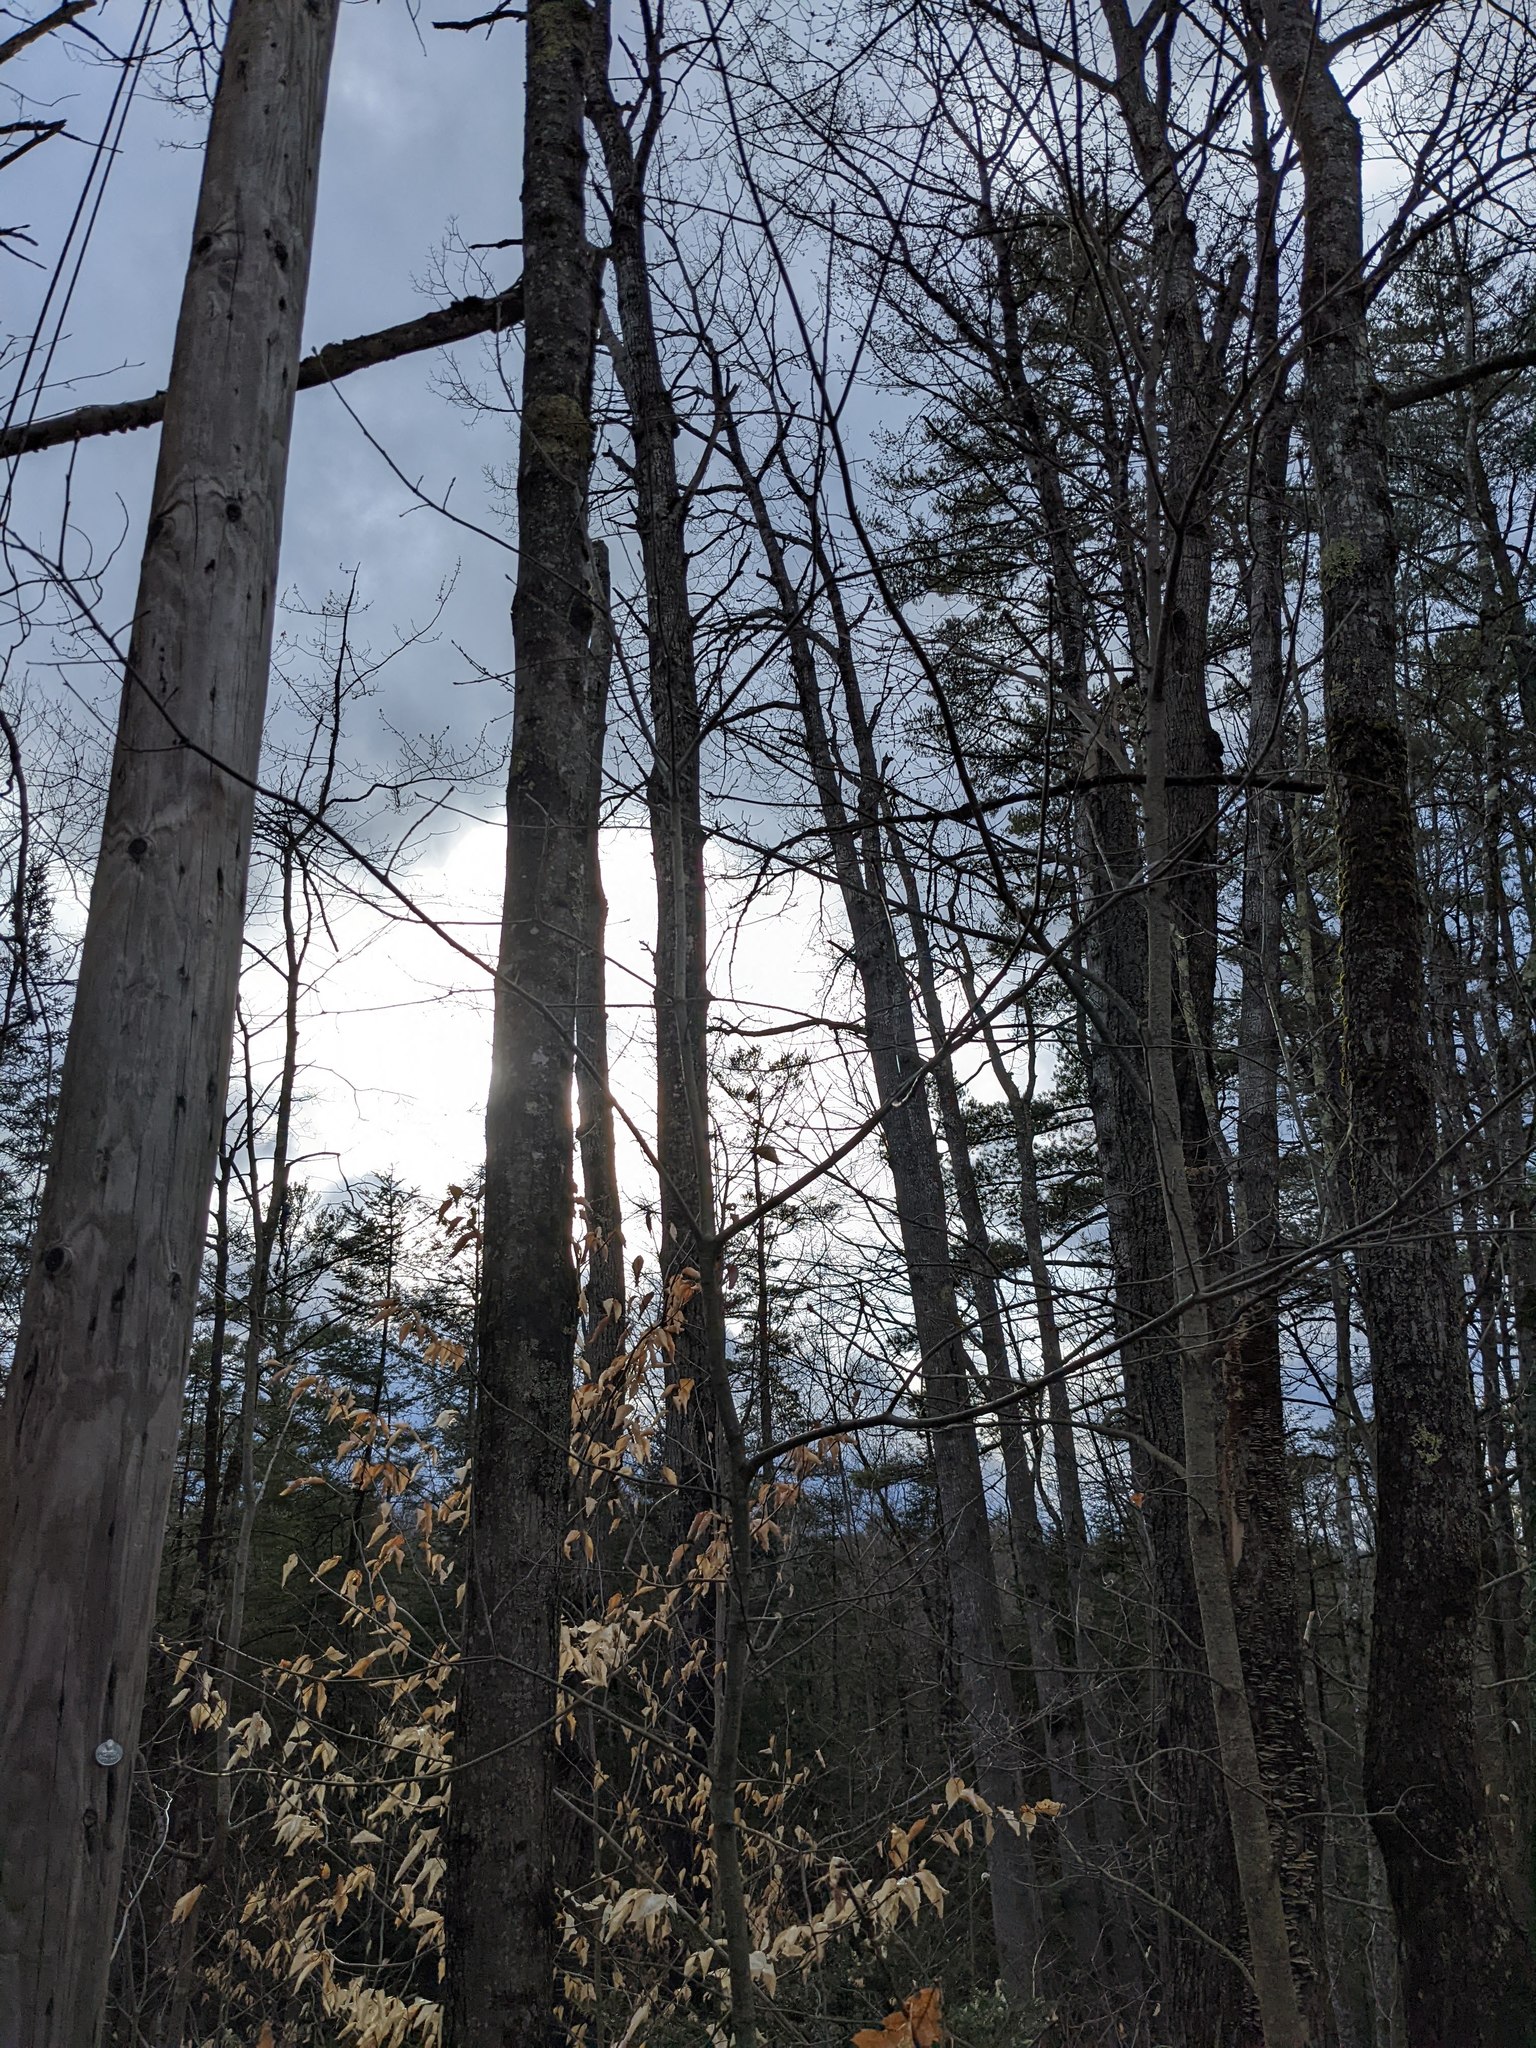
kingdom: Plantae
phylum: Tracheophyta
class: Magnoliopsida
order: Fagales
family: Fagaceae
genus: Fagus
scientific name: Fagus grandifolia
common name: American beech
